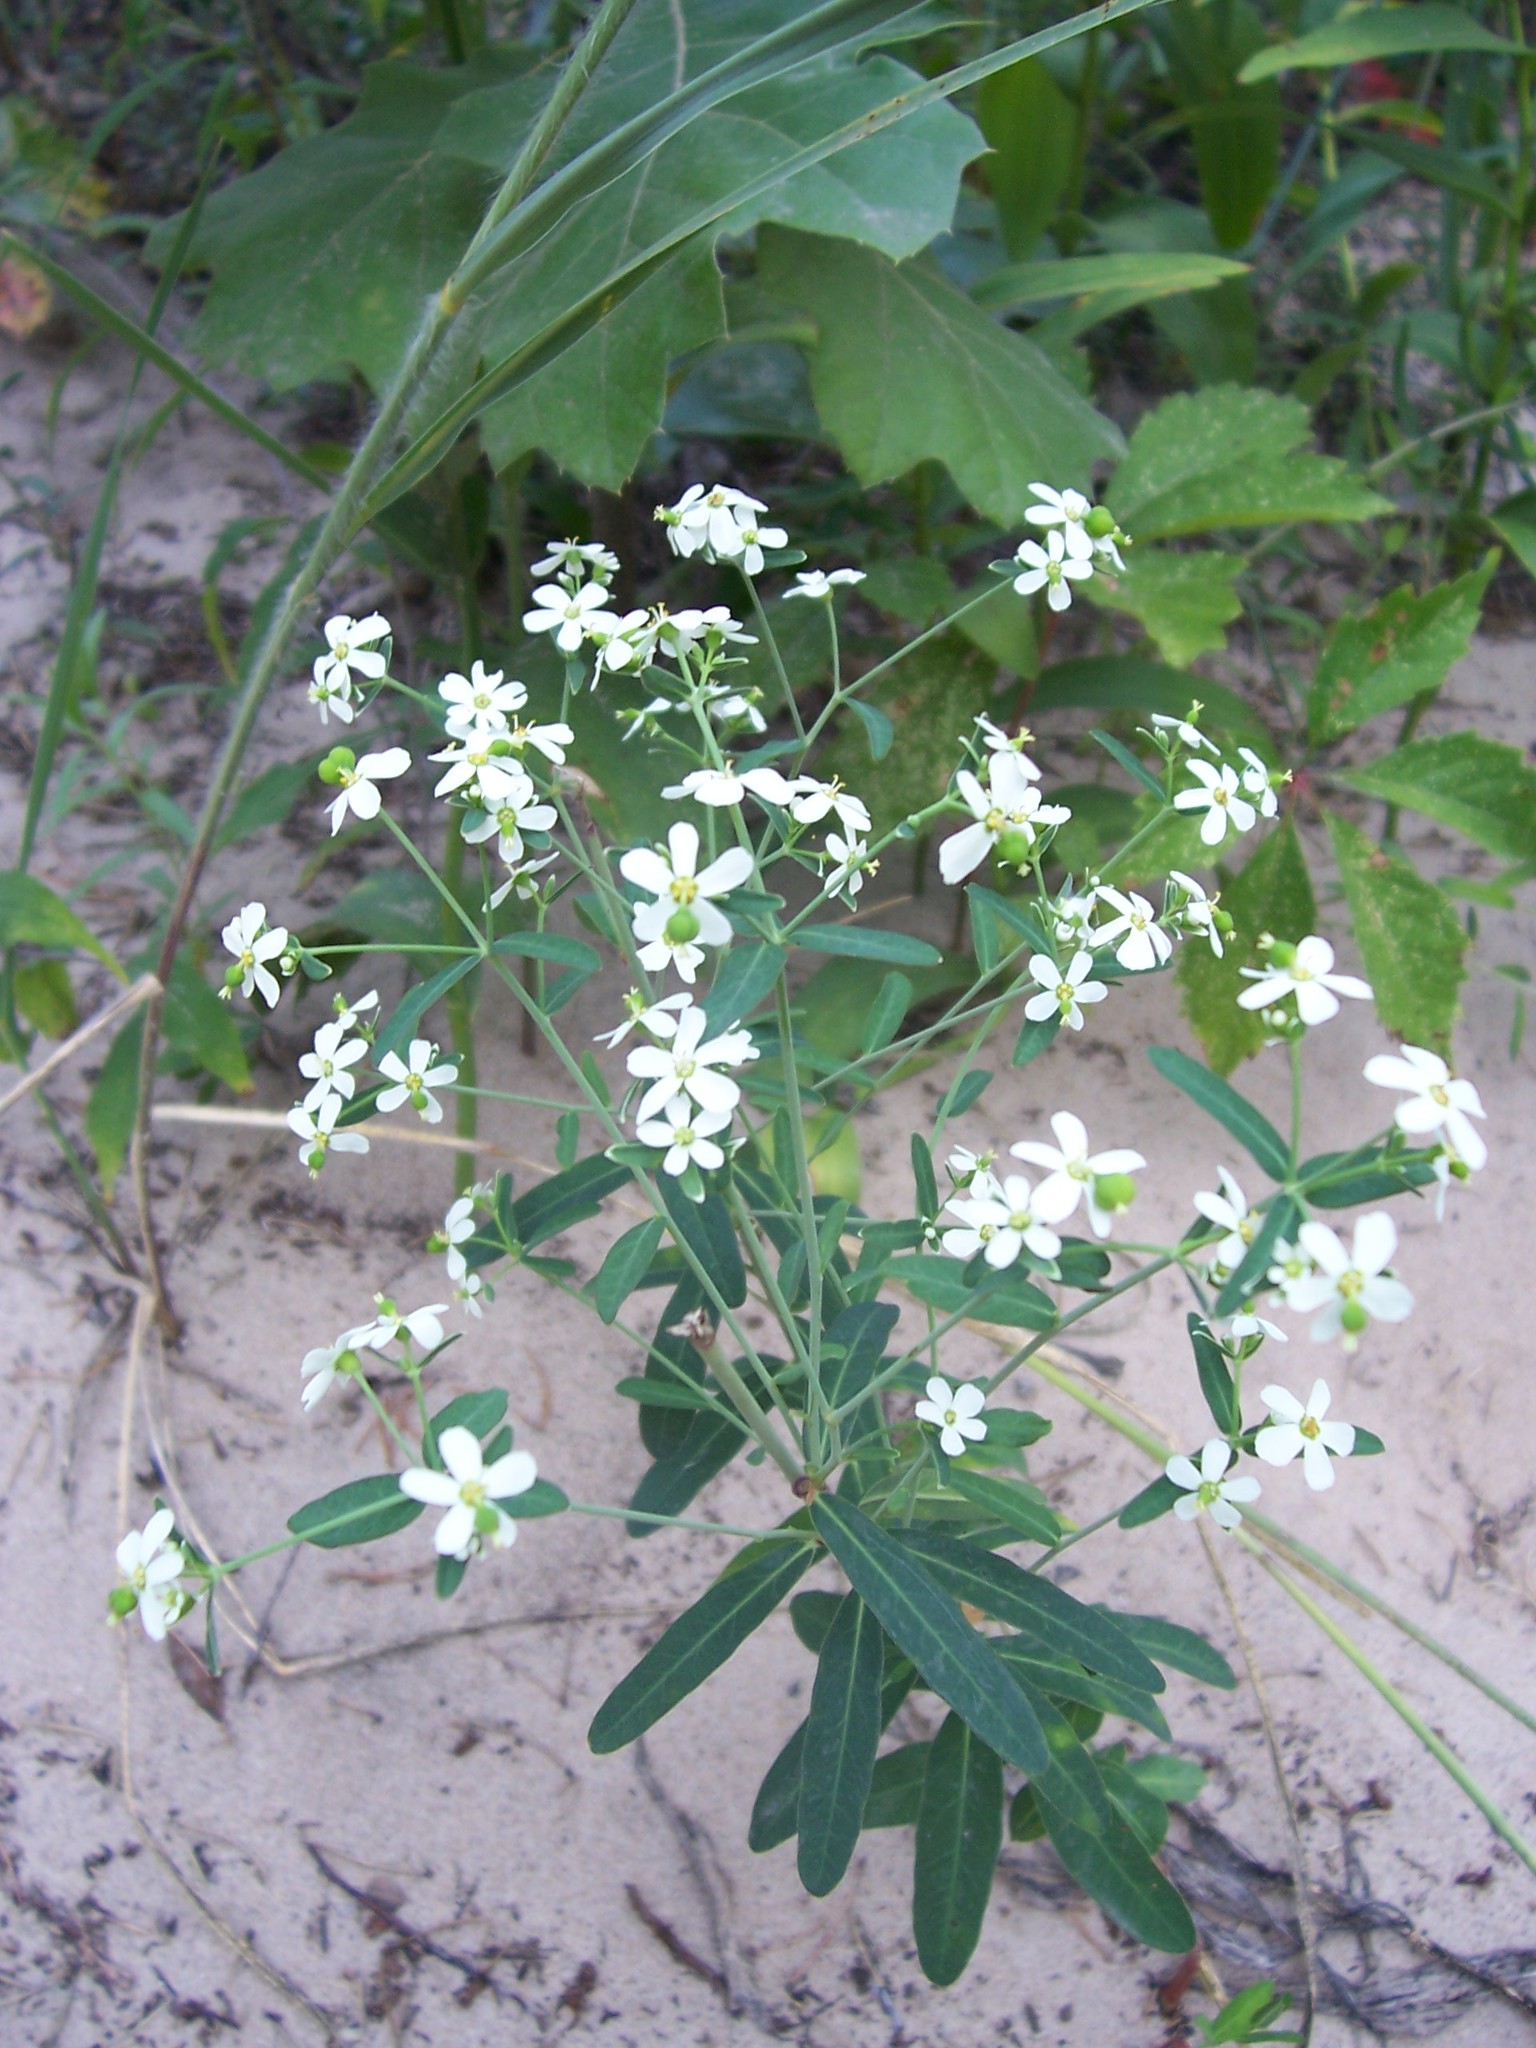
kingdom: Plantae
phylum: Tracheophyta
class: Magnoliopsida
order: Malpighiales
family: Euphorbiaceae
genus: Euphorbia
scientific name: Euphorbia corollata
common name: Flowering spurge
